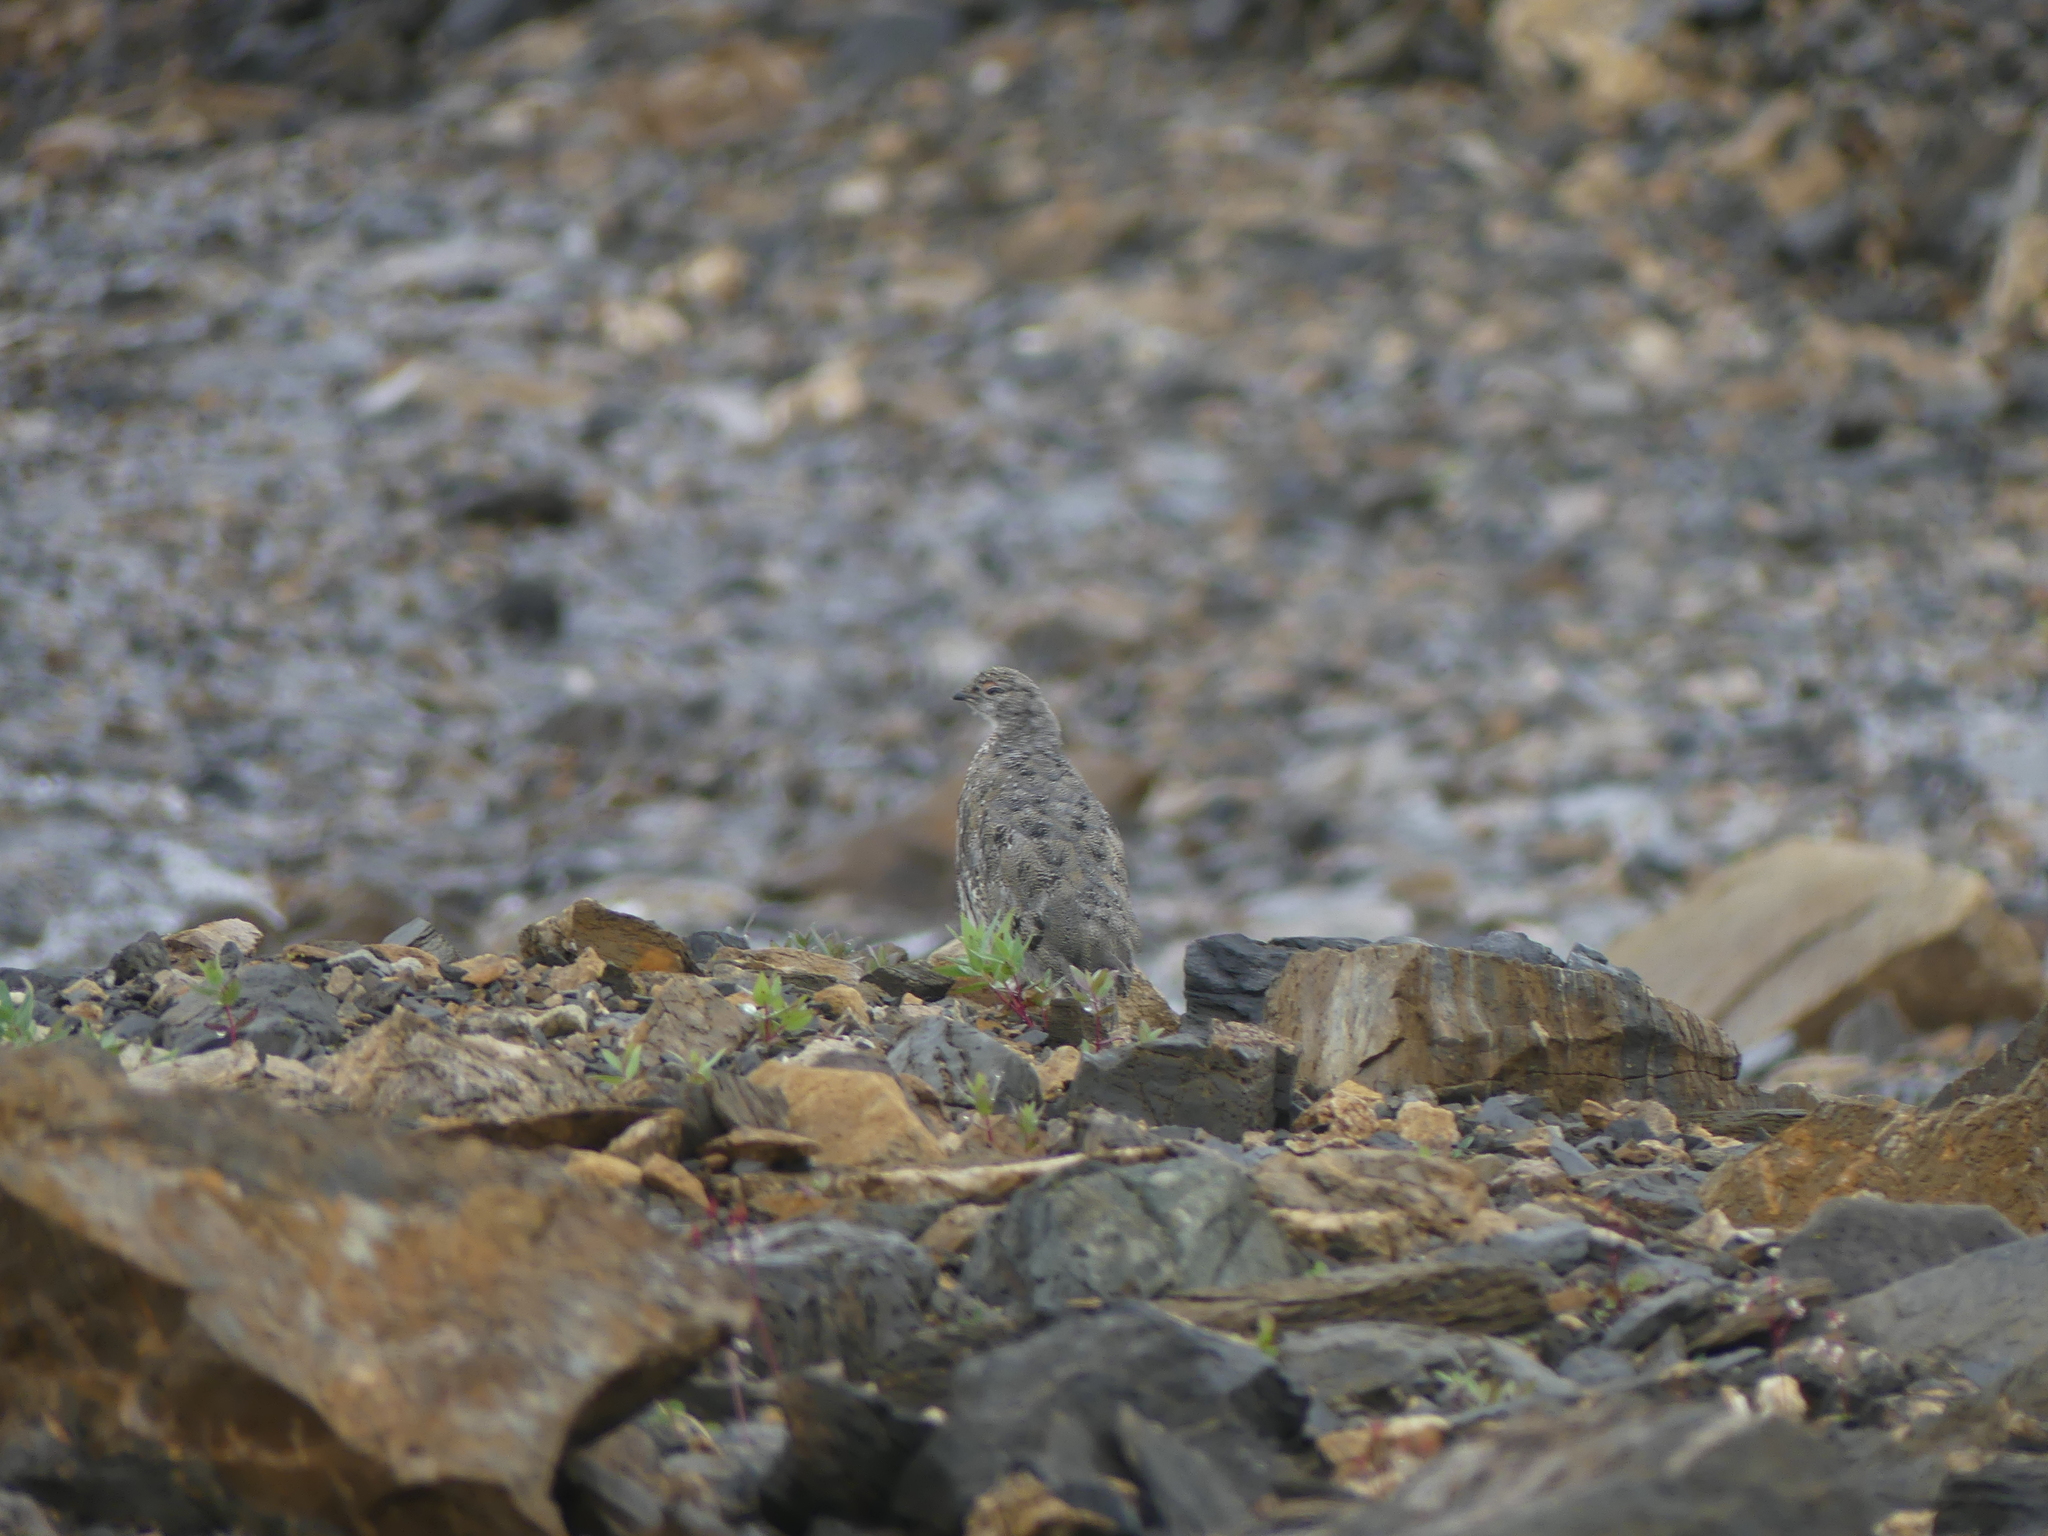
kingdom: Animalia
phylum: Chordata
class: Aves
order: Galliformes
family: Phasianidae
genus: Lagopus
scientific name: Lagopus leucura
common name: White-tailed ptarmigan
